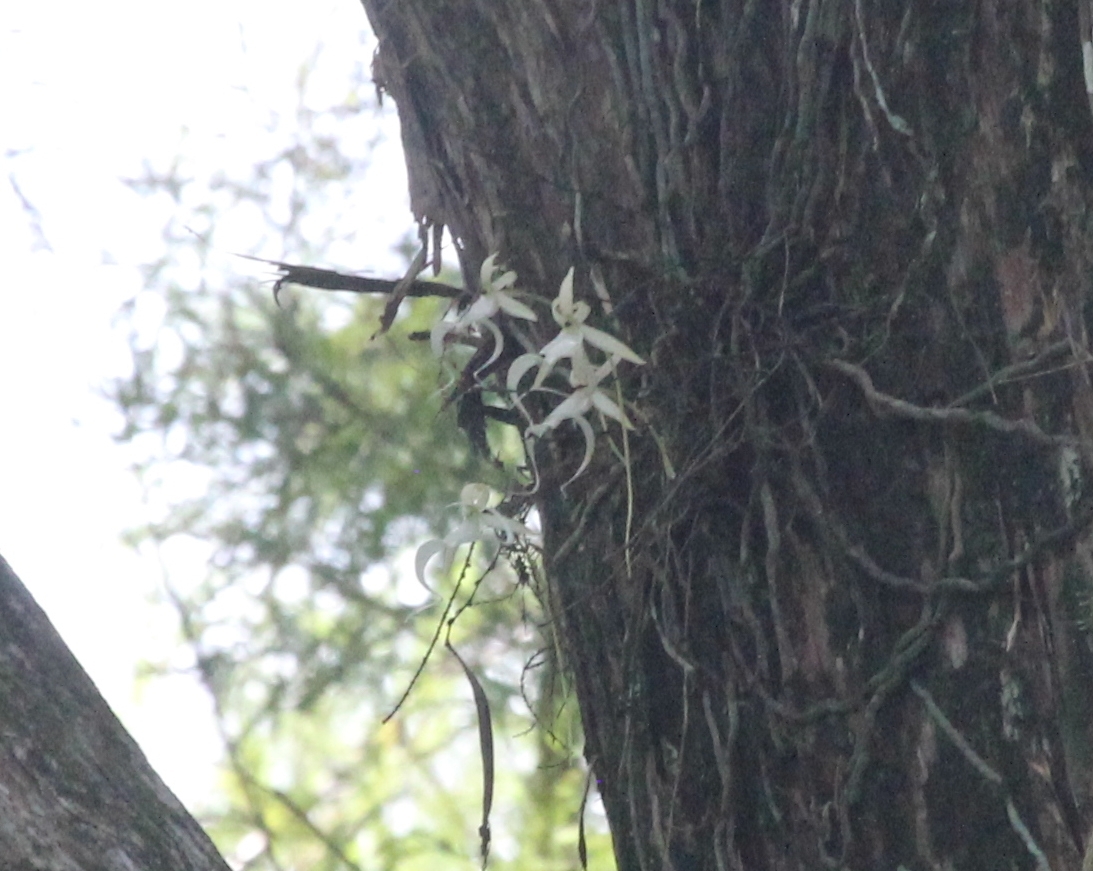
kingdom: Plantae
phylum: Tracheophyta
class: Liliopsida
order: Asparagales
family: Orchidaceae
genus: Dendrophylax
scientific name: Dendrophylax lindenii
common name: Palmpolly
